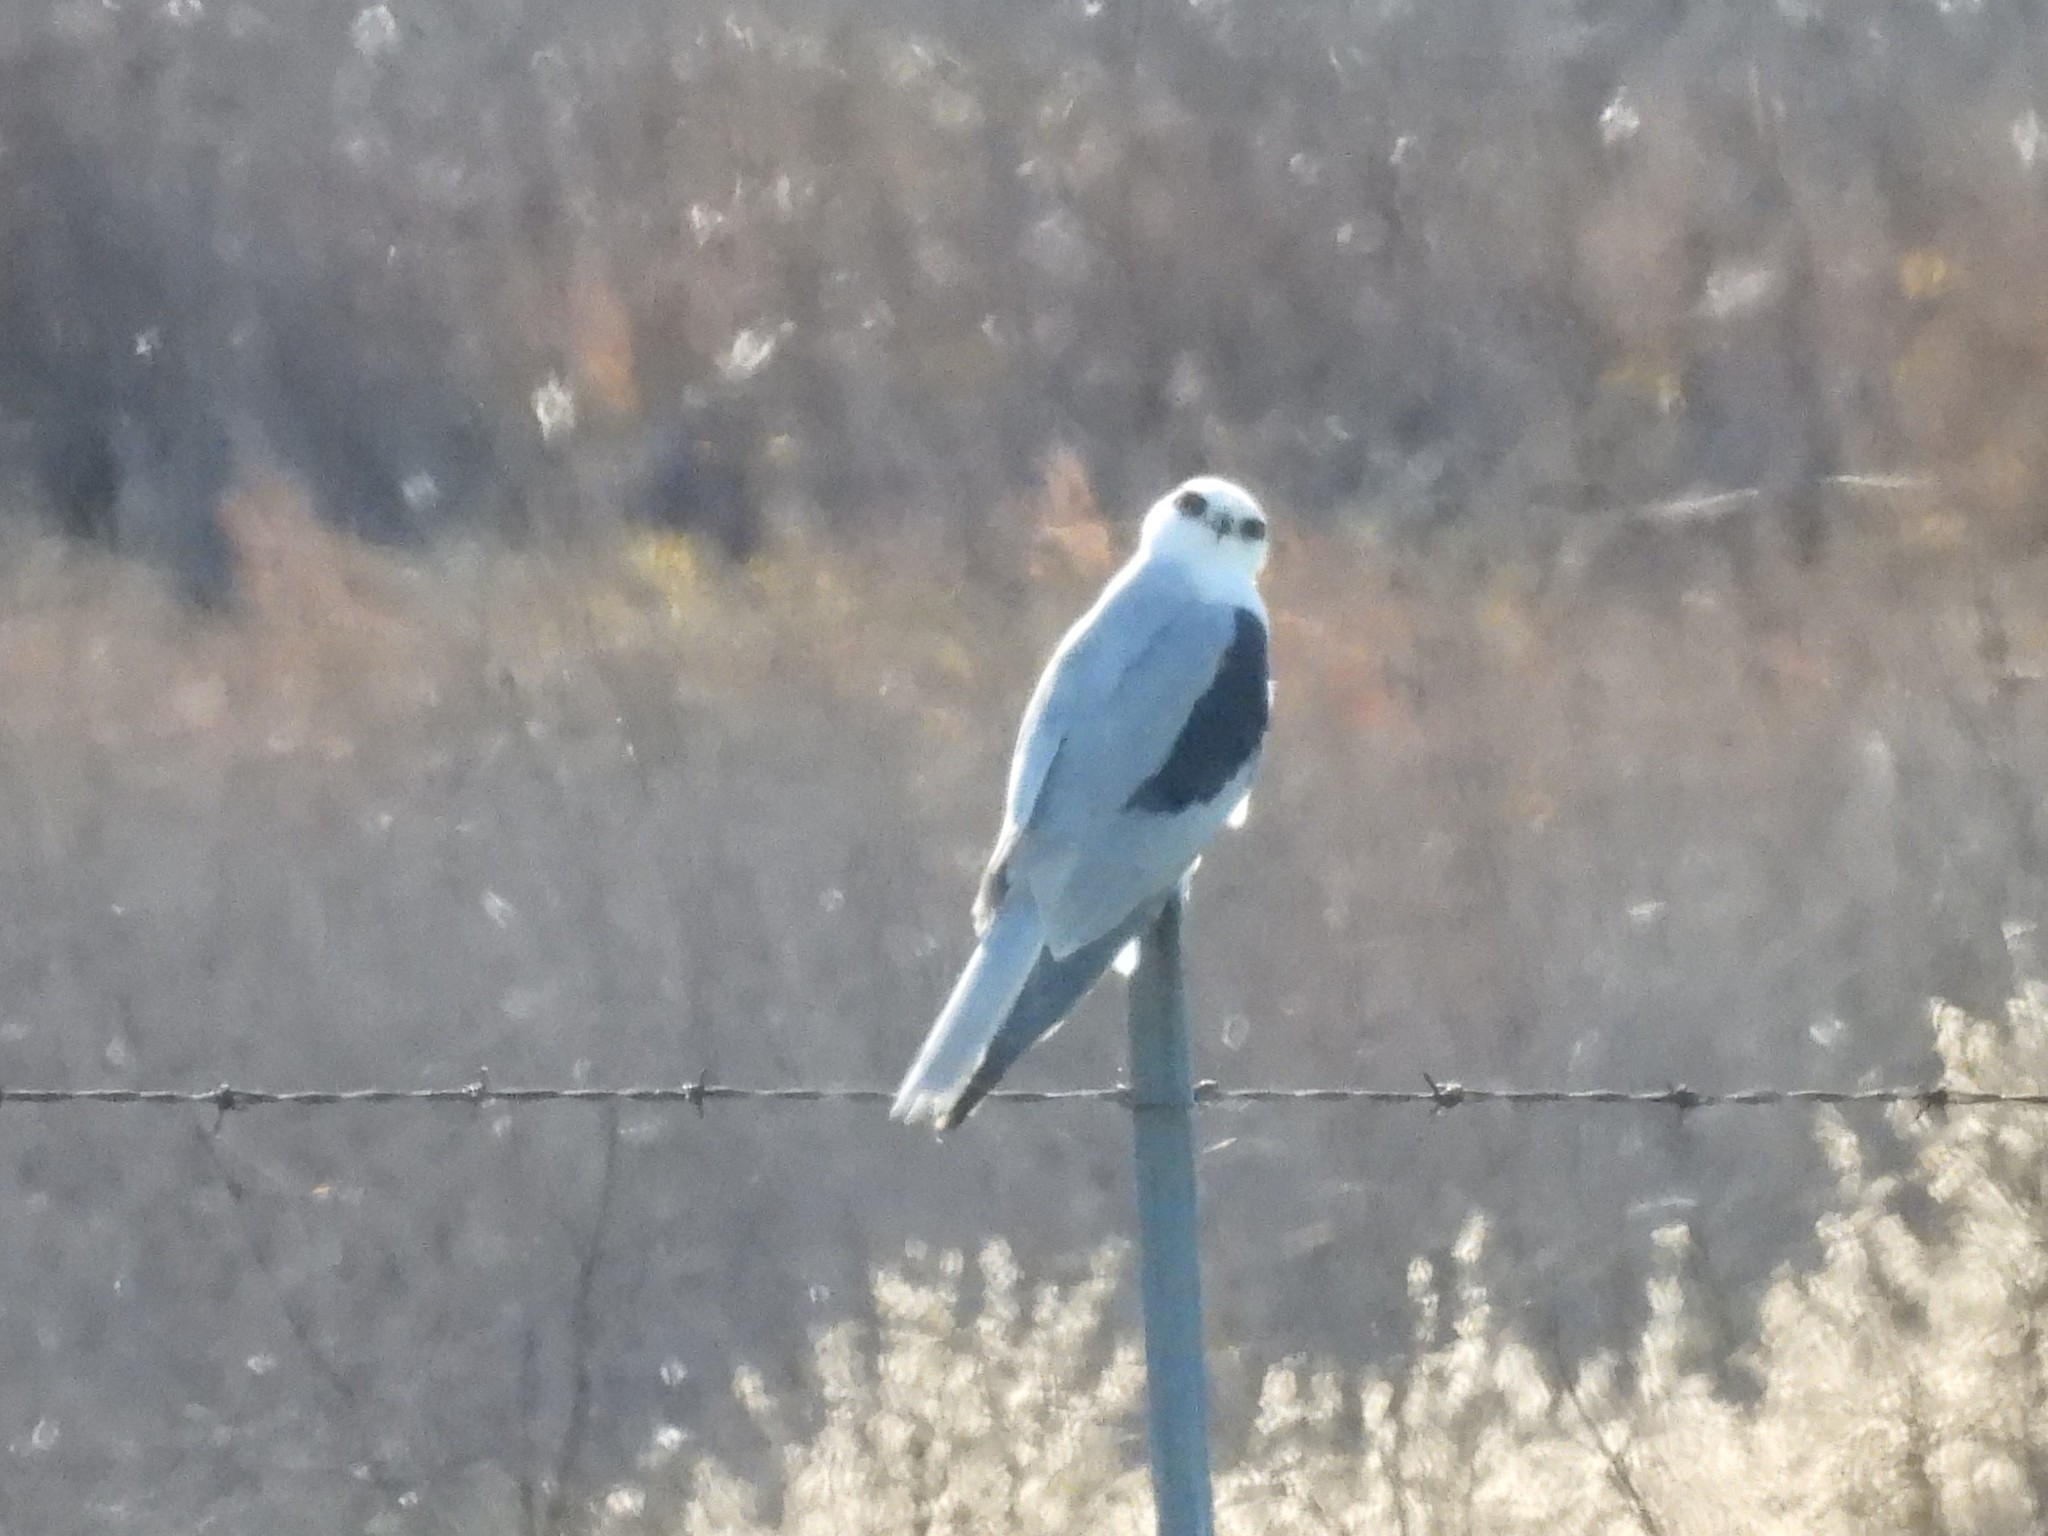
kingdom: Animalia
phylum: Chordata
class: Aves
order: Accipitriformes
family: Accipitridae
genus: Elanus
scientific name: Elanus leucurus
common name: White-tailed kite
